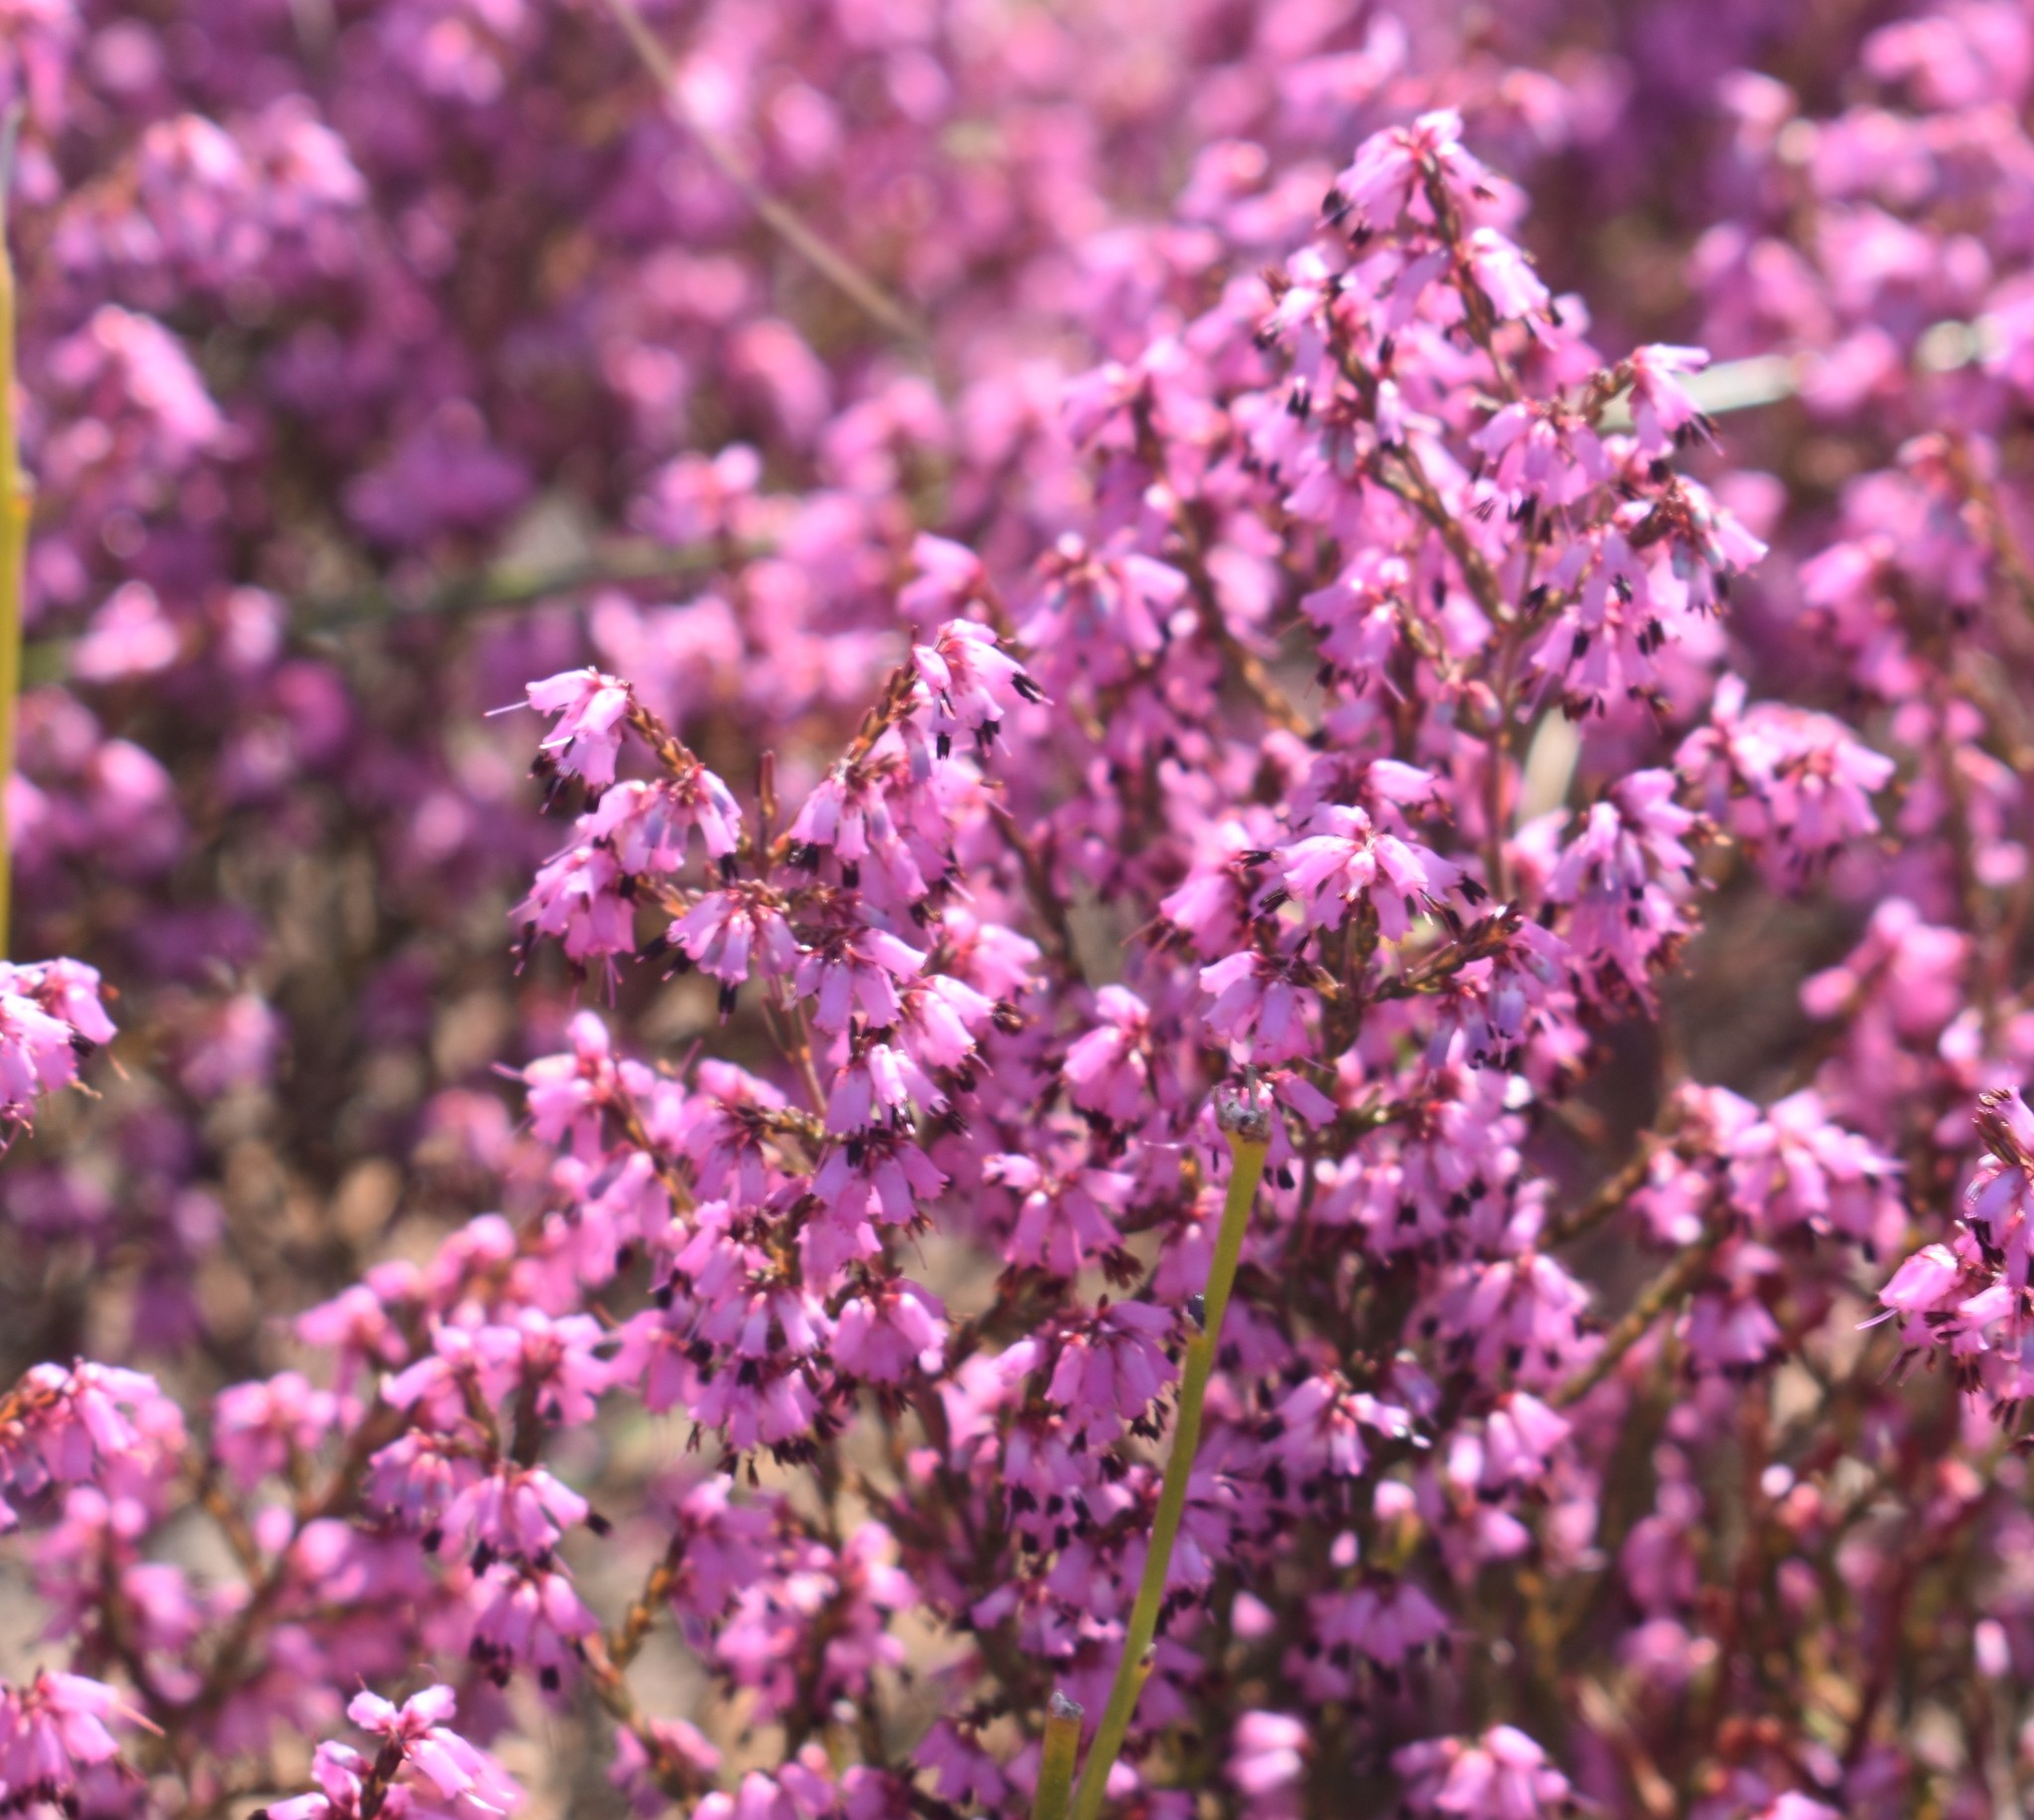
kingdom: Plantae
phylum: Tracheophyta
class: Magnoliopsida
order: Ericales
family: Ericaceae
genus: Erica
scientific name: Erica rosacea
